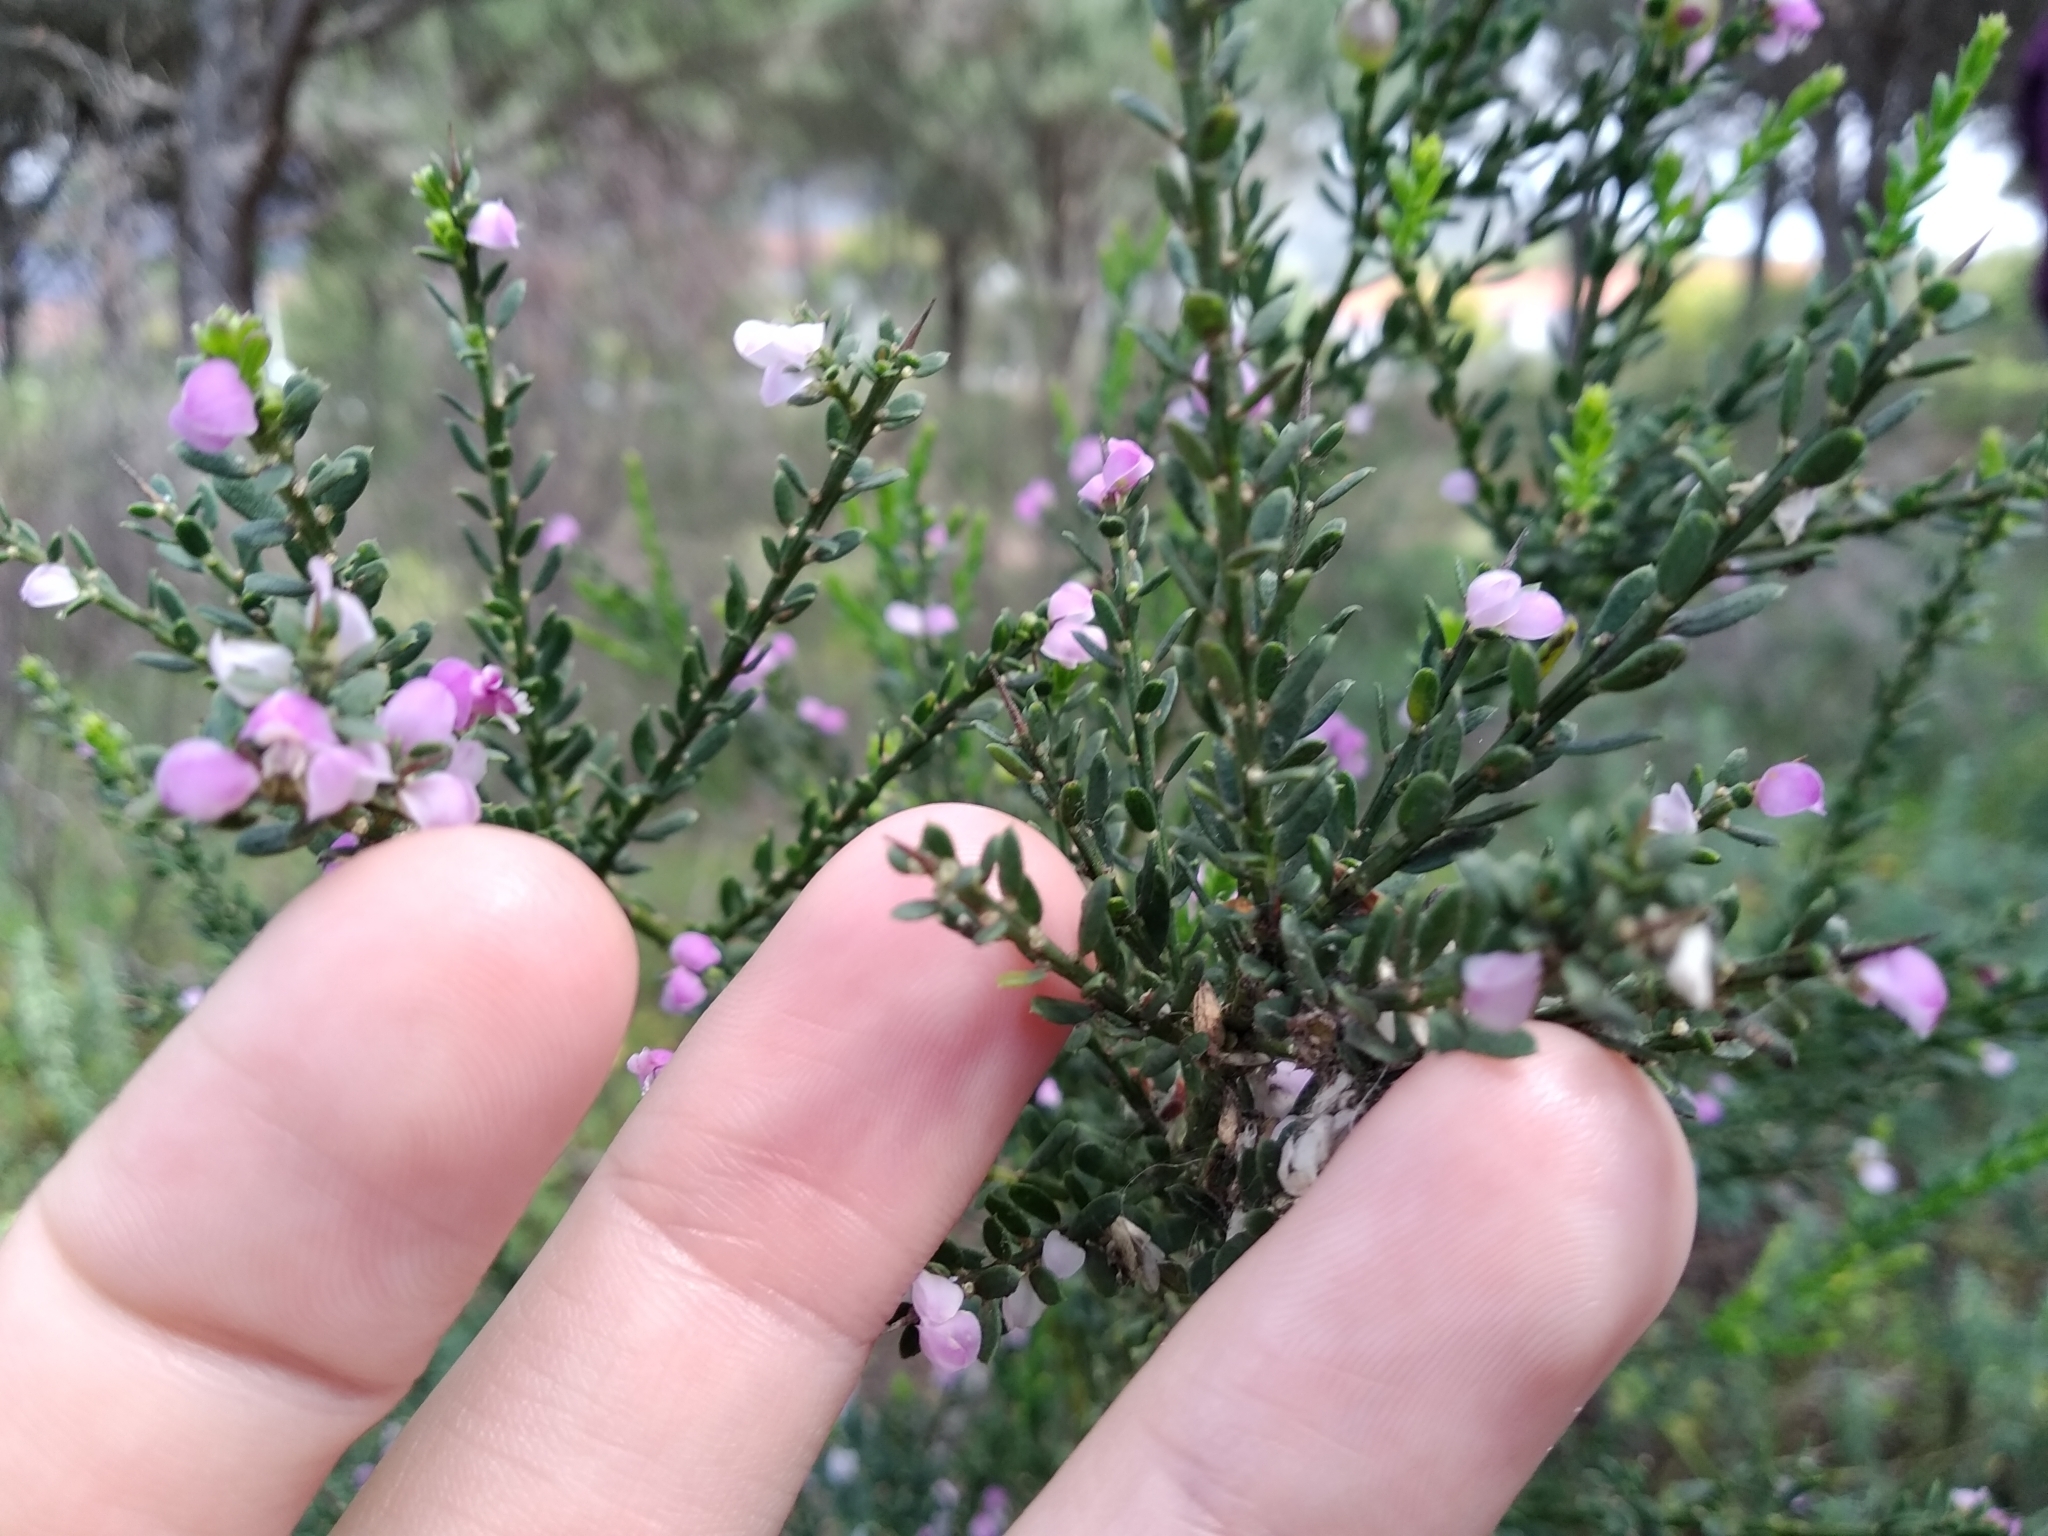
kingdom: Plantae
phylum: Tracheophyta
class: Magnoliopsida
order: Fabales
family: Polygalaceae
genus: Muraltia
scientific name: Muraltia spinosa
